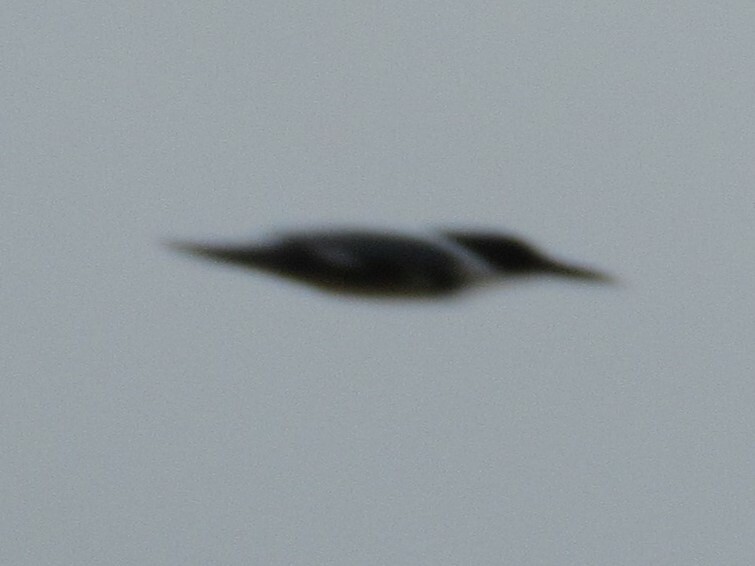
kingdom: Animalia
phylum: Chordata
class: Aves
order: Coraciiformes
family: Alcedinidae
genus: Megaceryle
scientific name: Megaceryle alcyon
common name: Belted kingfisher
